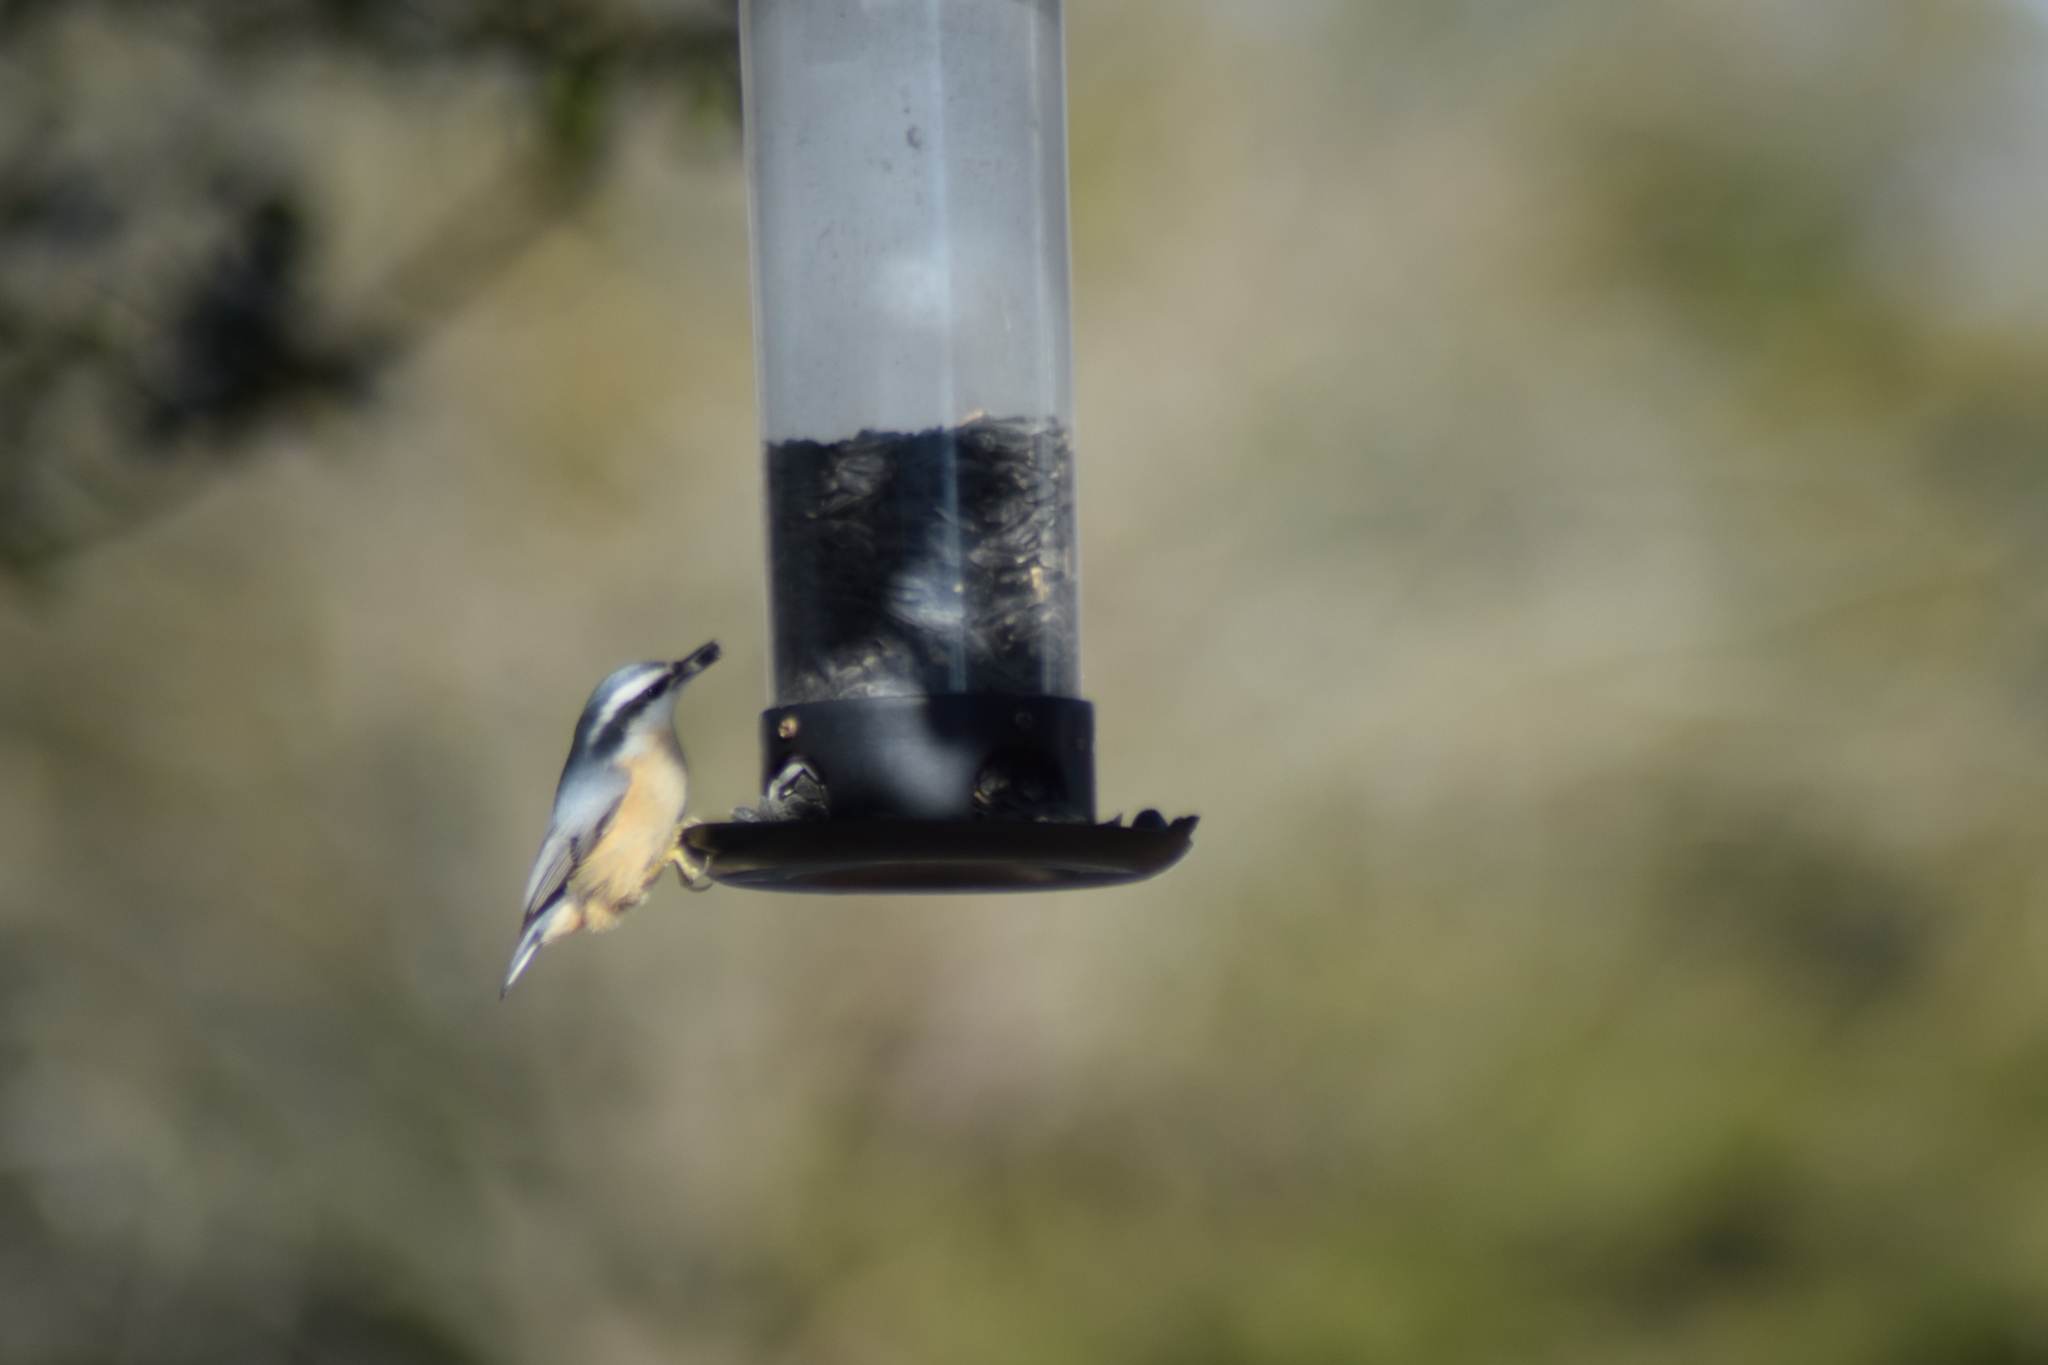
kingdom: Animalia
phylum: Chordata
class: Aves
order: Passeriformes
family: Sittidae
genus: Sitta
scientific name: Sitta canadensis
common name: Red-breasted nuthatch
